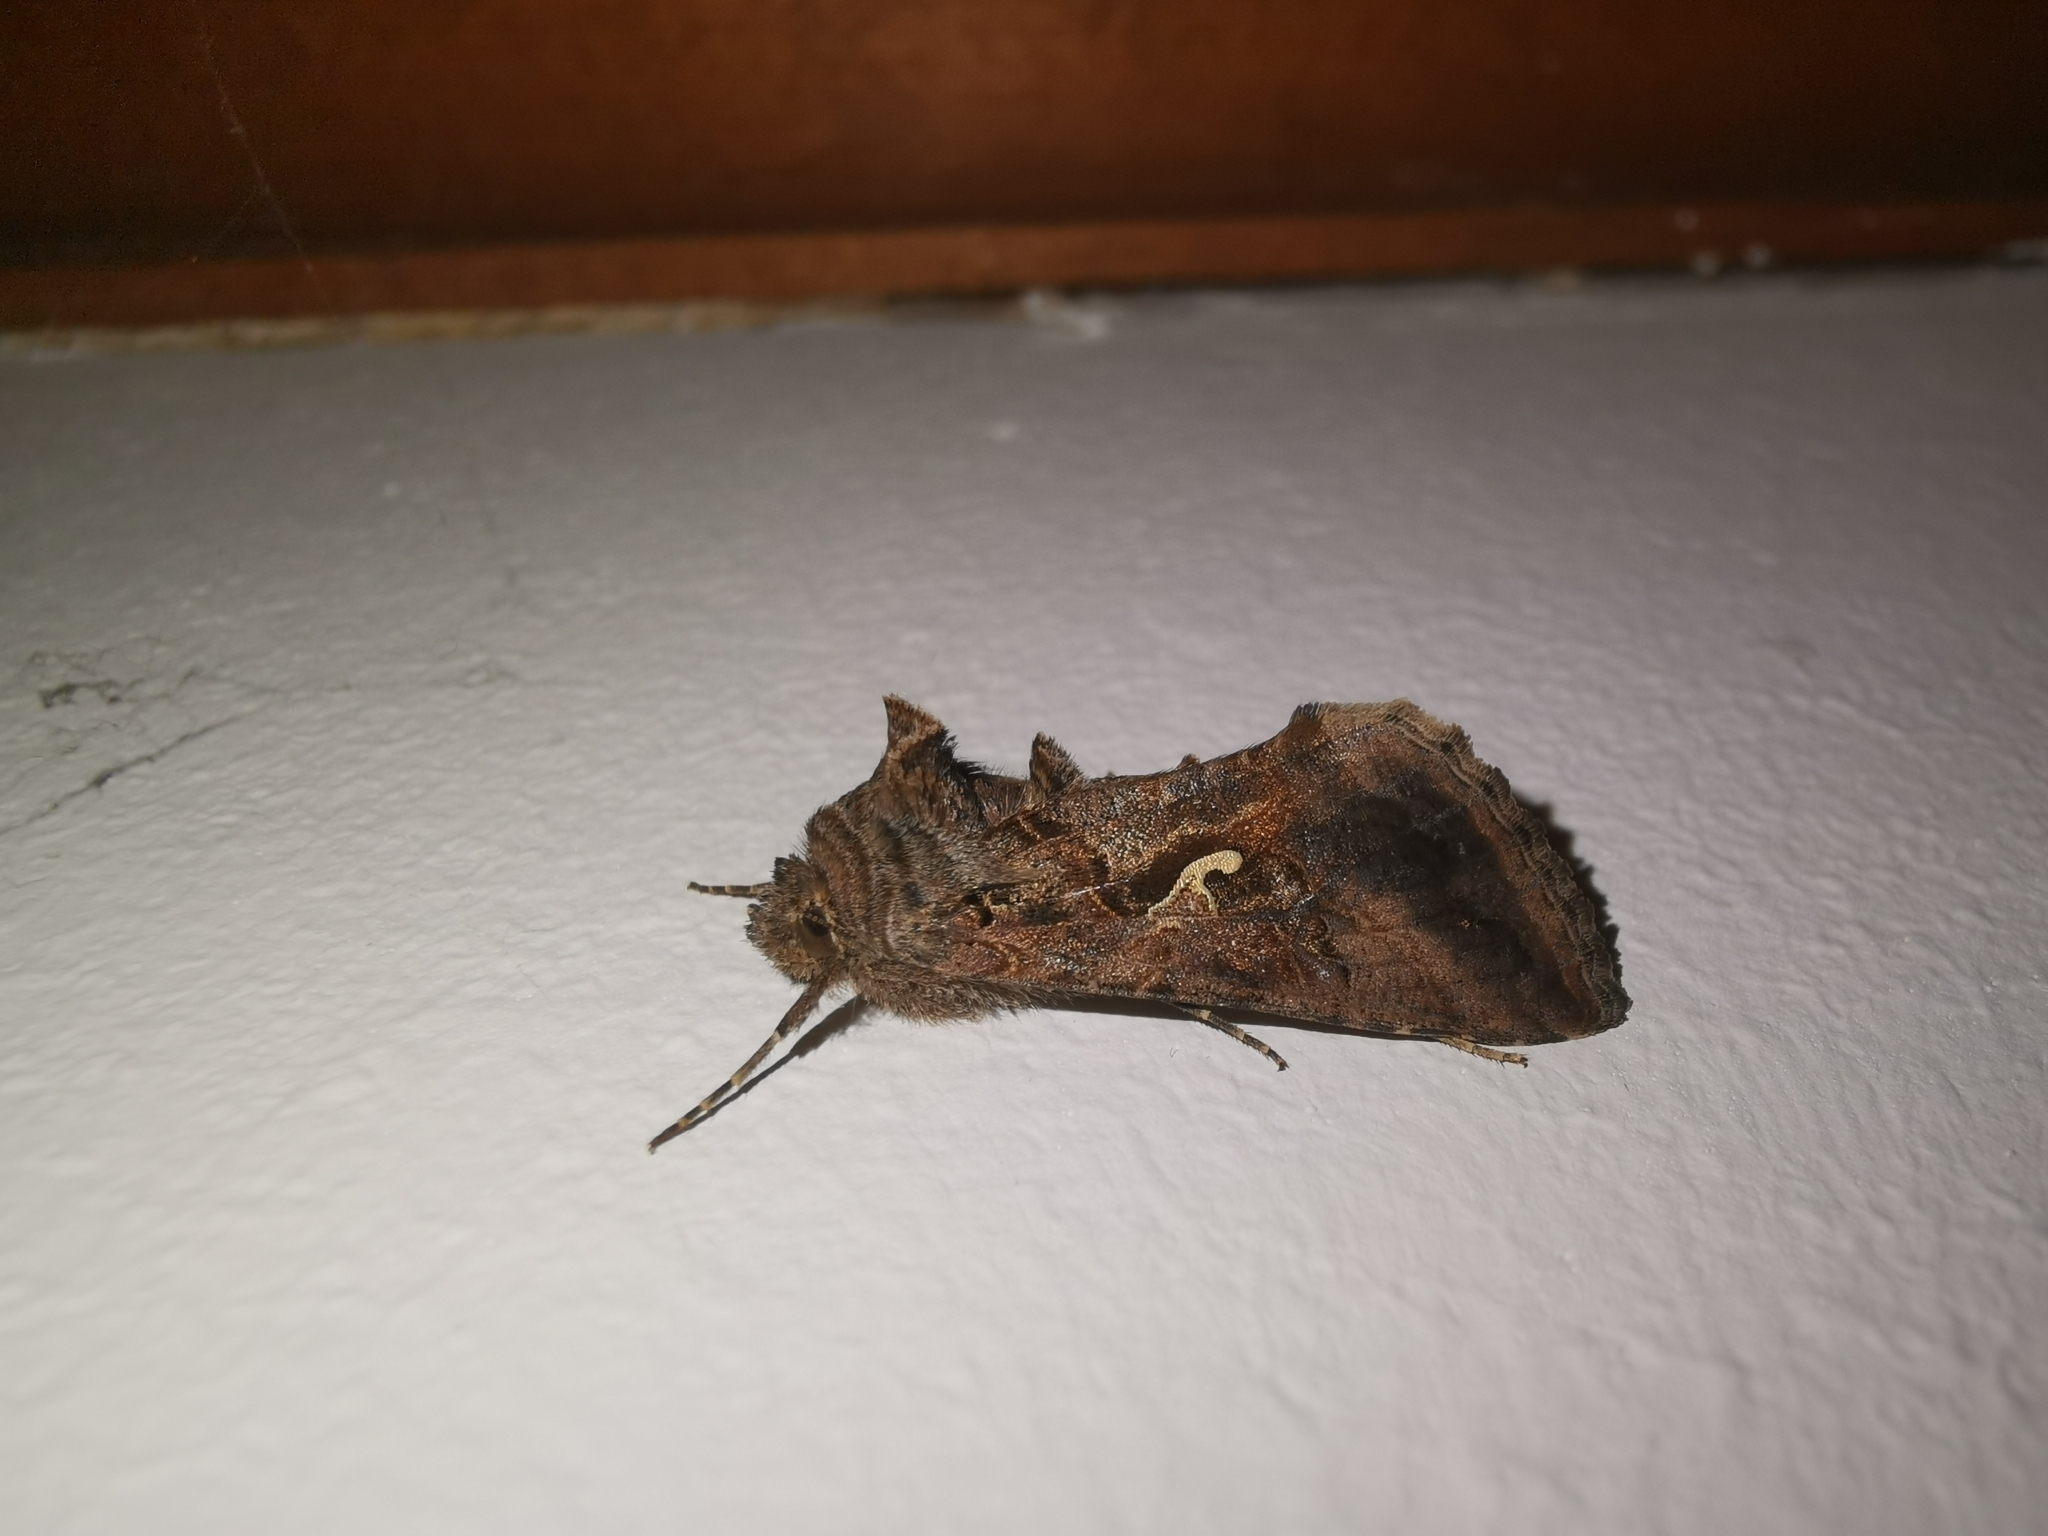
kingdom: Animalia
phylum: Arthropoda
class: Insecta
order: Lepidoptera
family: Noctuidae
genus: Autographa
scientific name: Autographa gamma
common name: Silver y
